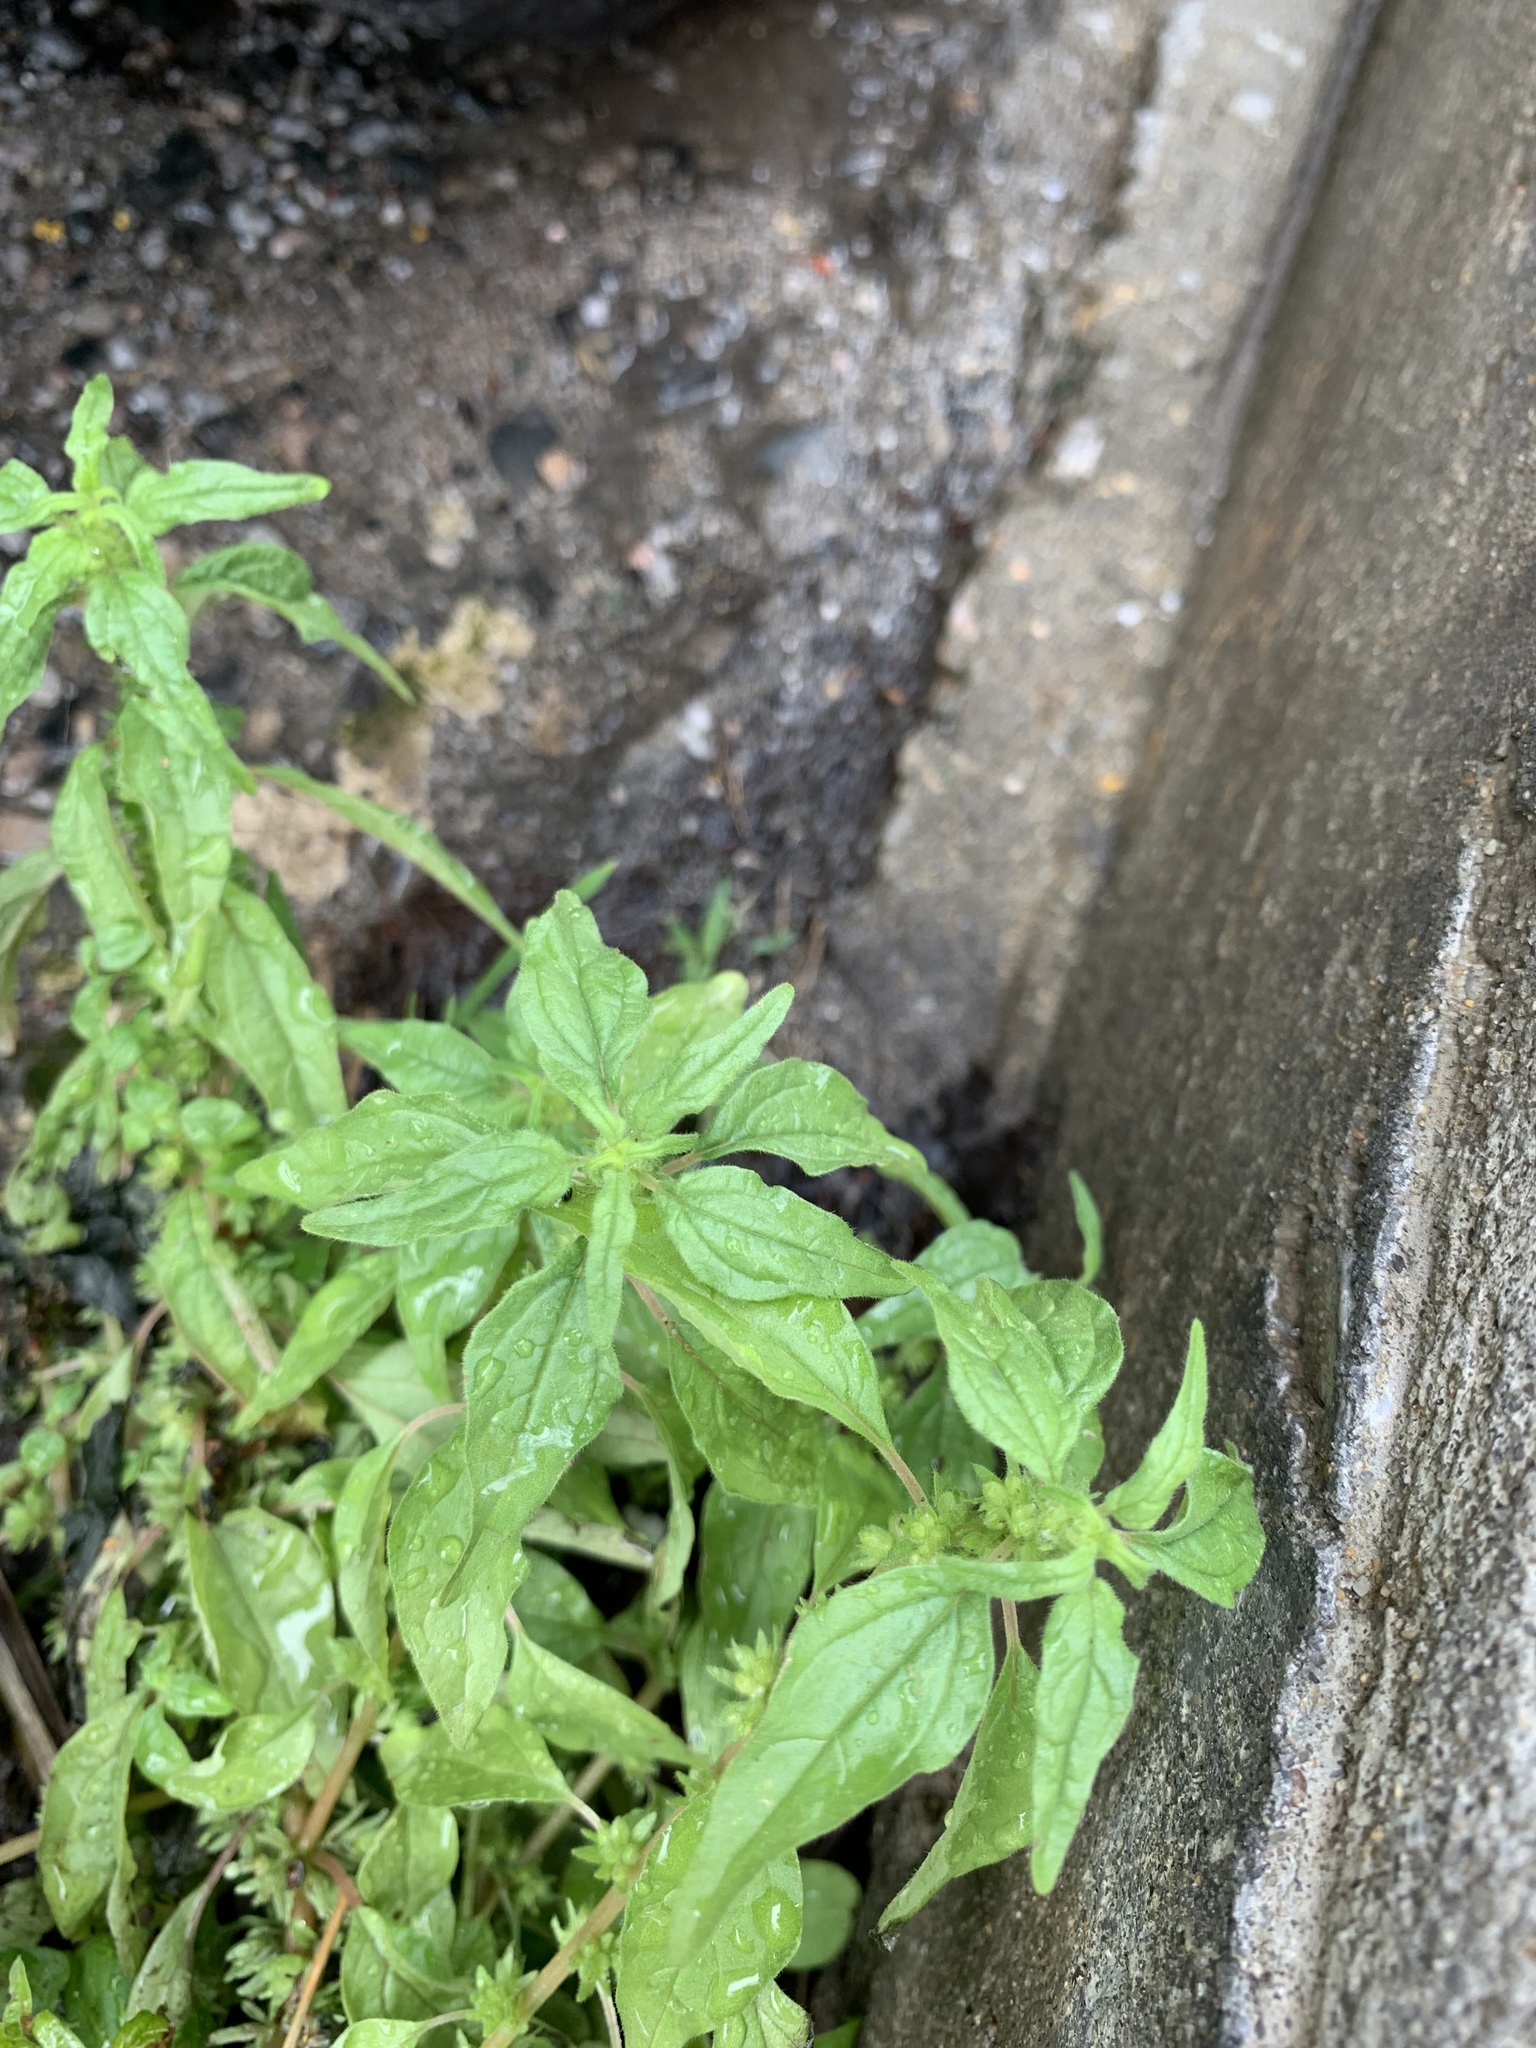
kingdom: Plantae
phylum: Tracheophyta
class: Magnoliopsida
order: Rosales
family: Urticaceae
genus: Parietaria
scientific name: Parietaria pensylvanica
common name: Pennsylvania pellitory
